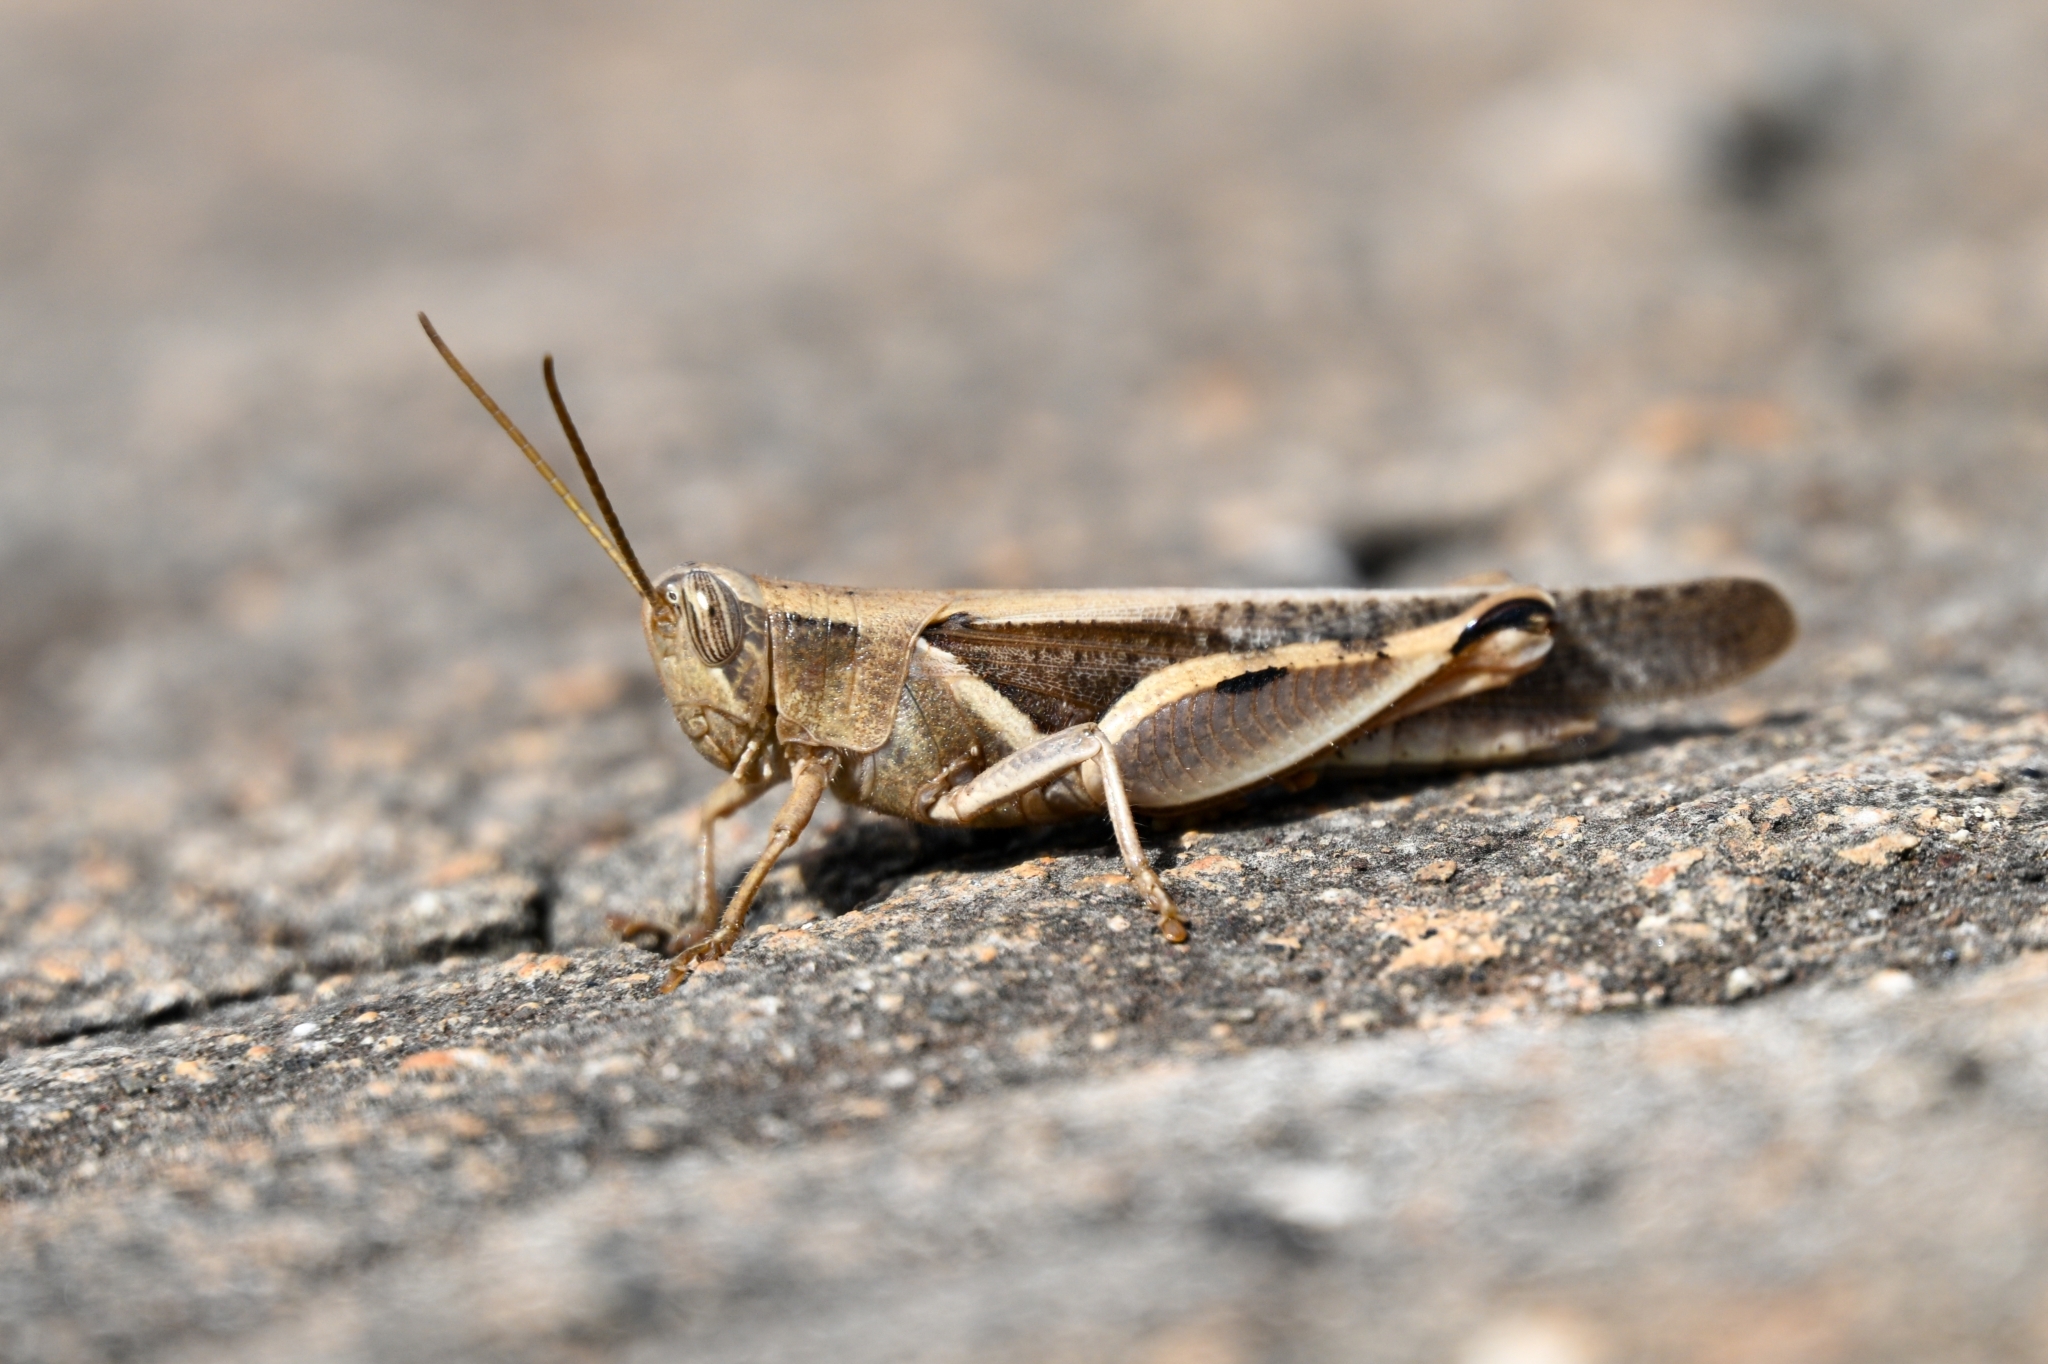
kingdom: Animalia
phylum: Arthropoda
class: Insecta
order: Orthoptera
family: Acrididae
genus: Diabolocatantops
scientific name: Diabolocatantops axillaris
